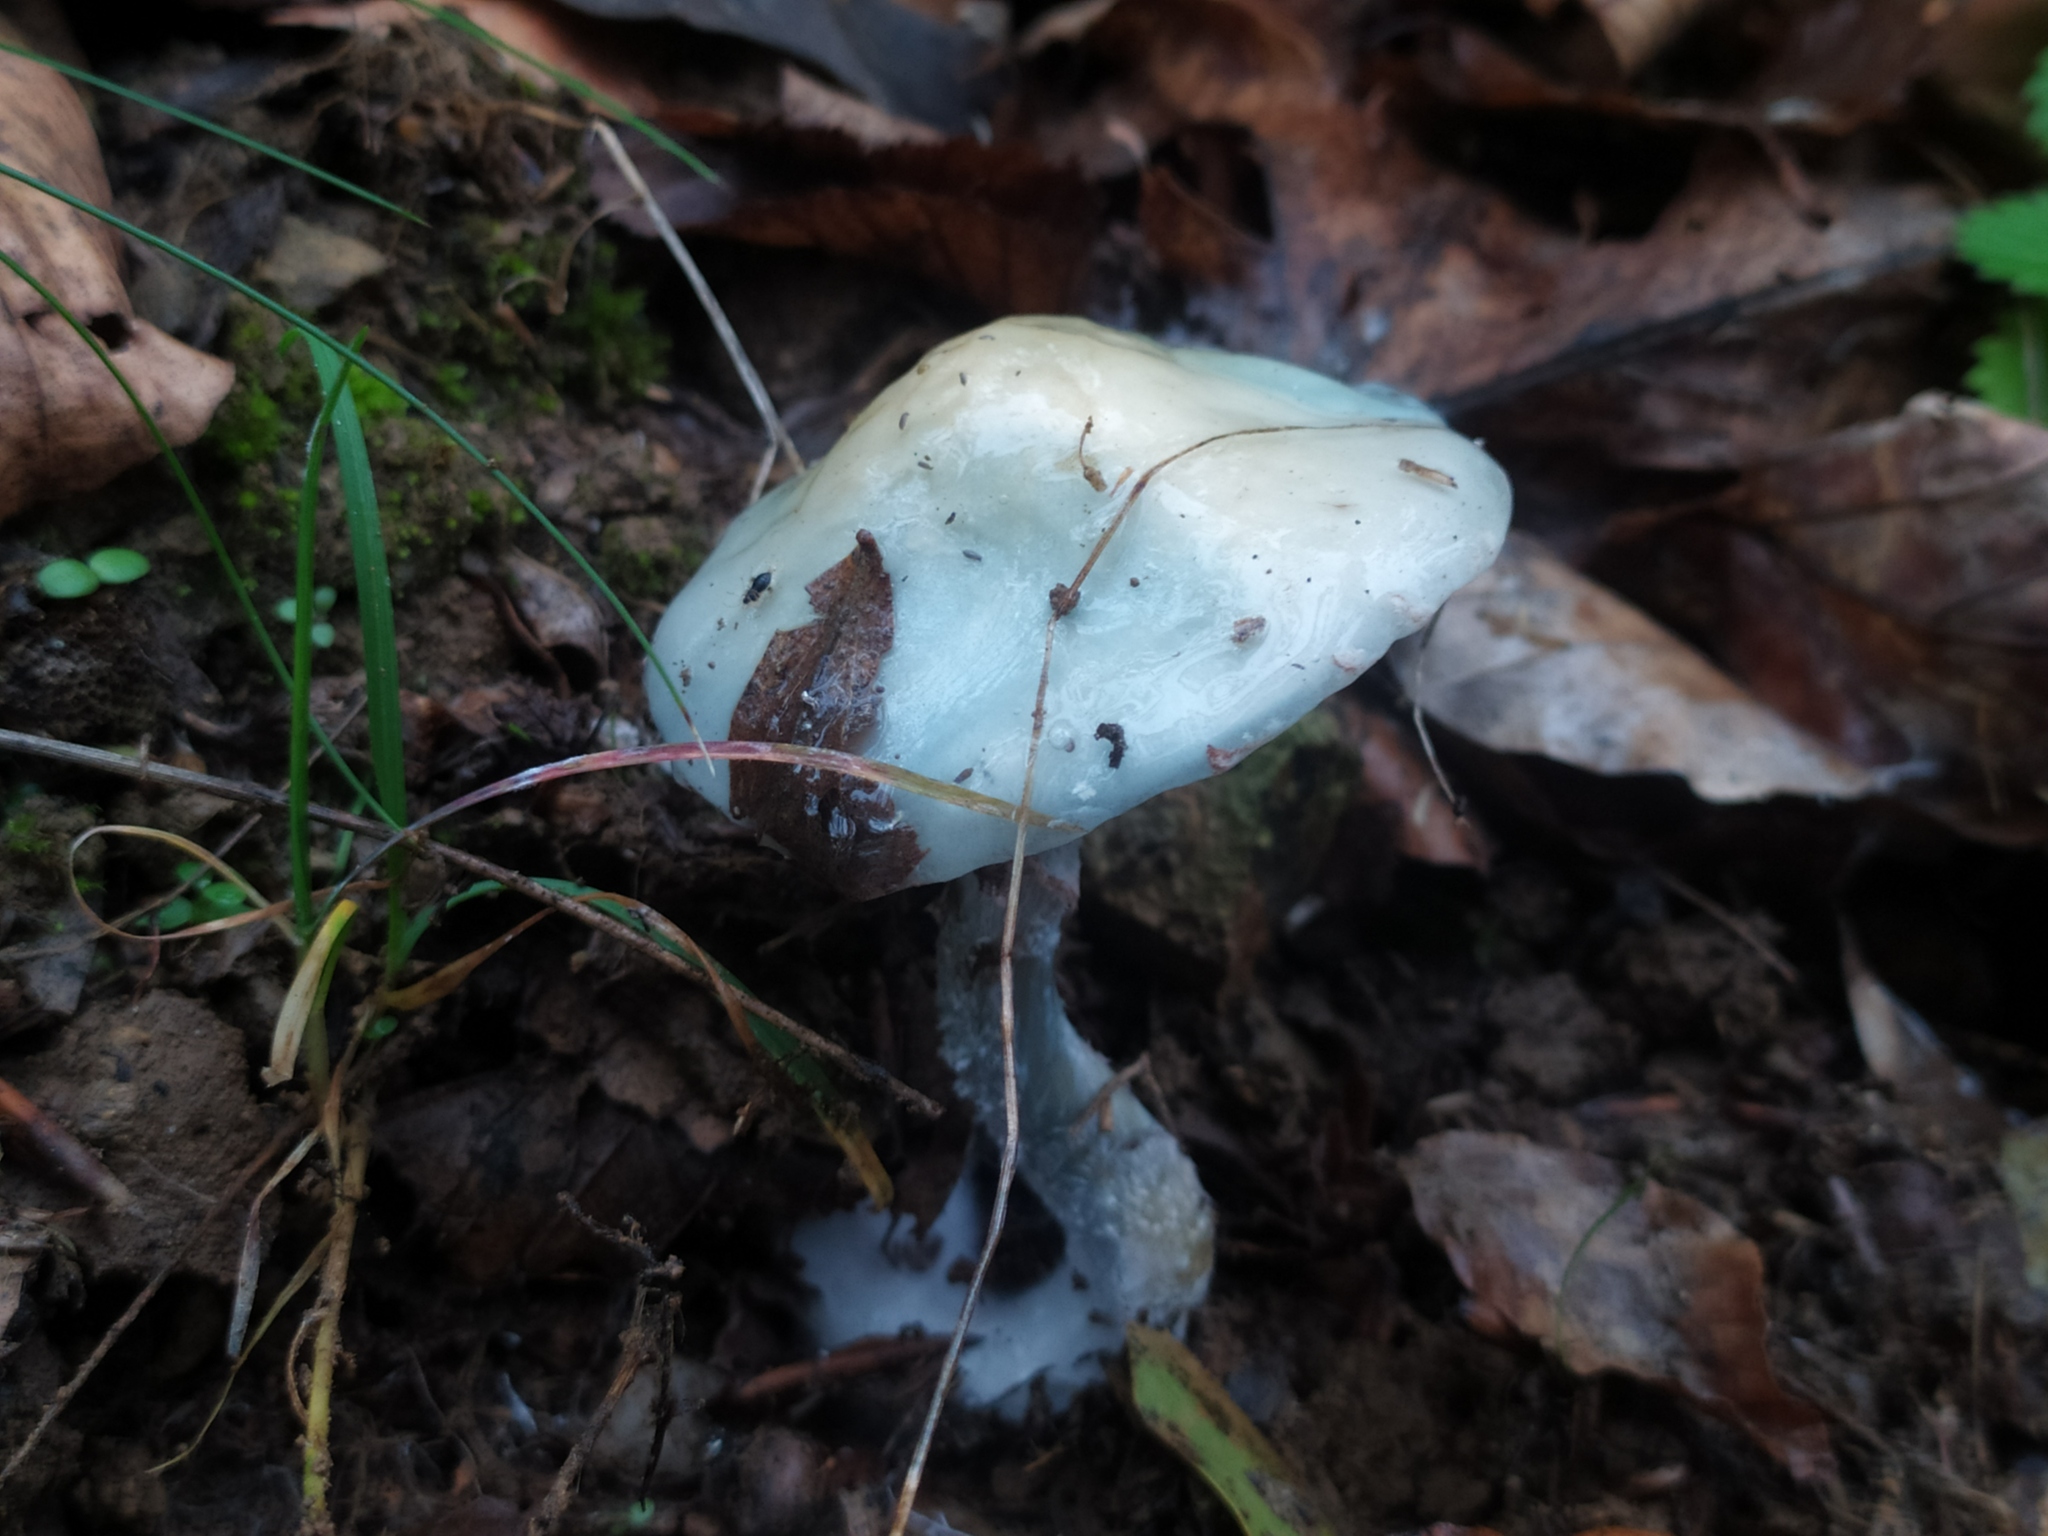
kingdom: Fungi
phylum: Basidiomycota
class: Agaricomycetes
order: Agaricales
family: Strophariaceae
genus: Stropharia
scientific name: Stropharia pseudocyanea
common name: Peppery roundhead
